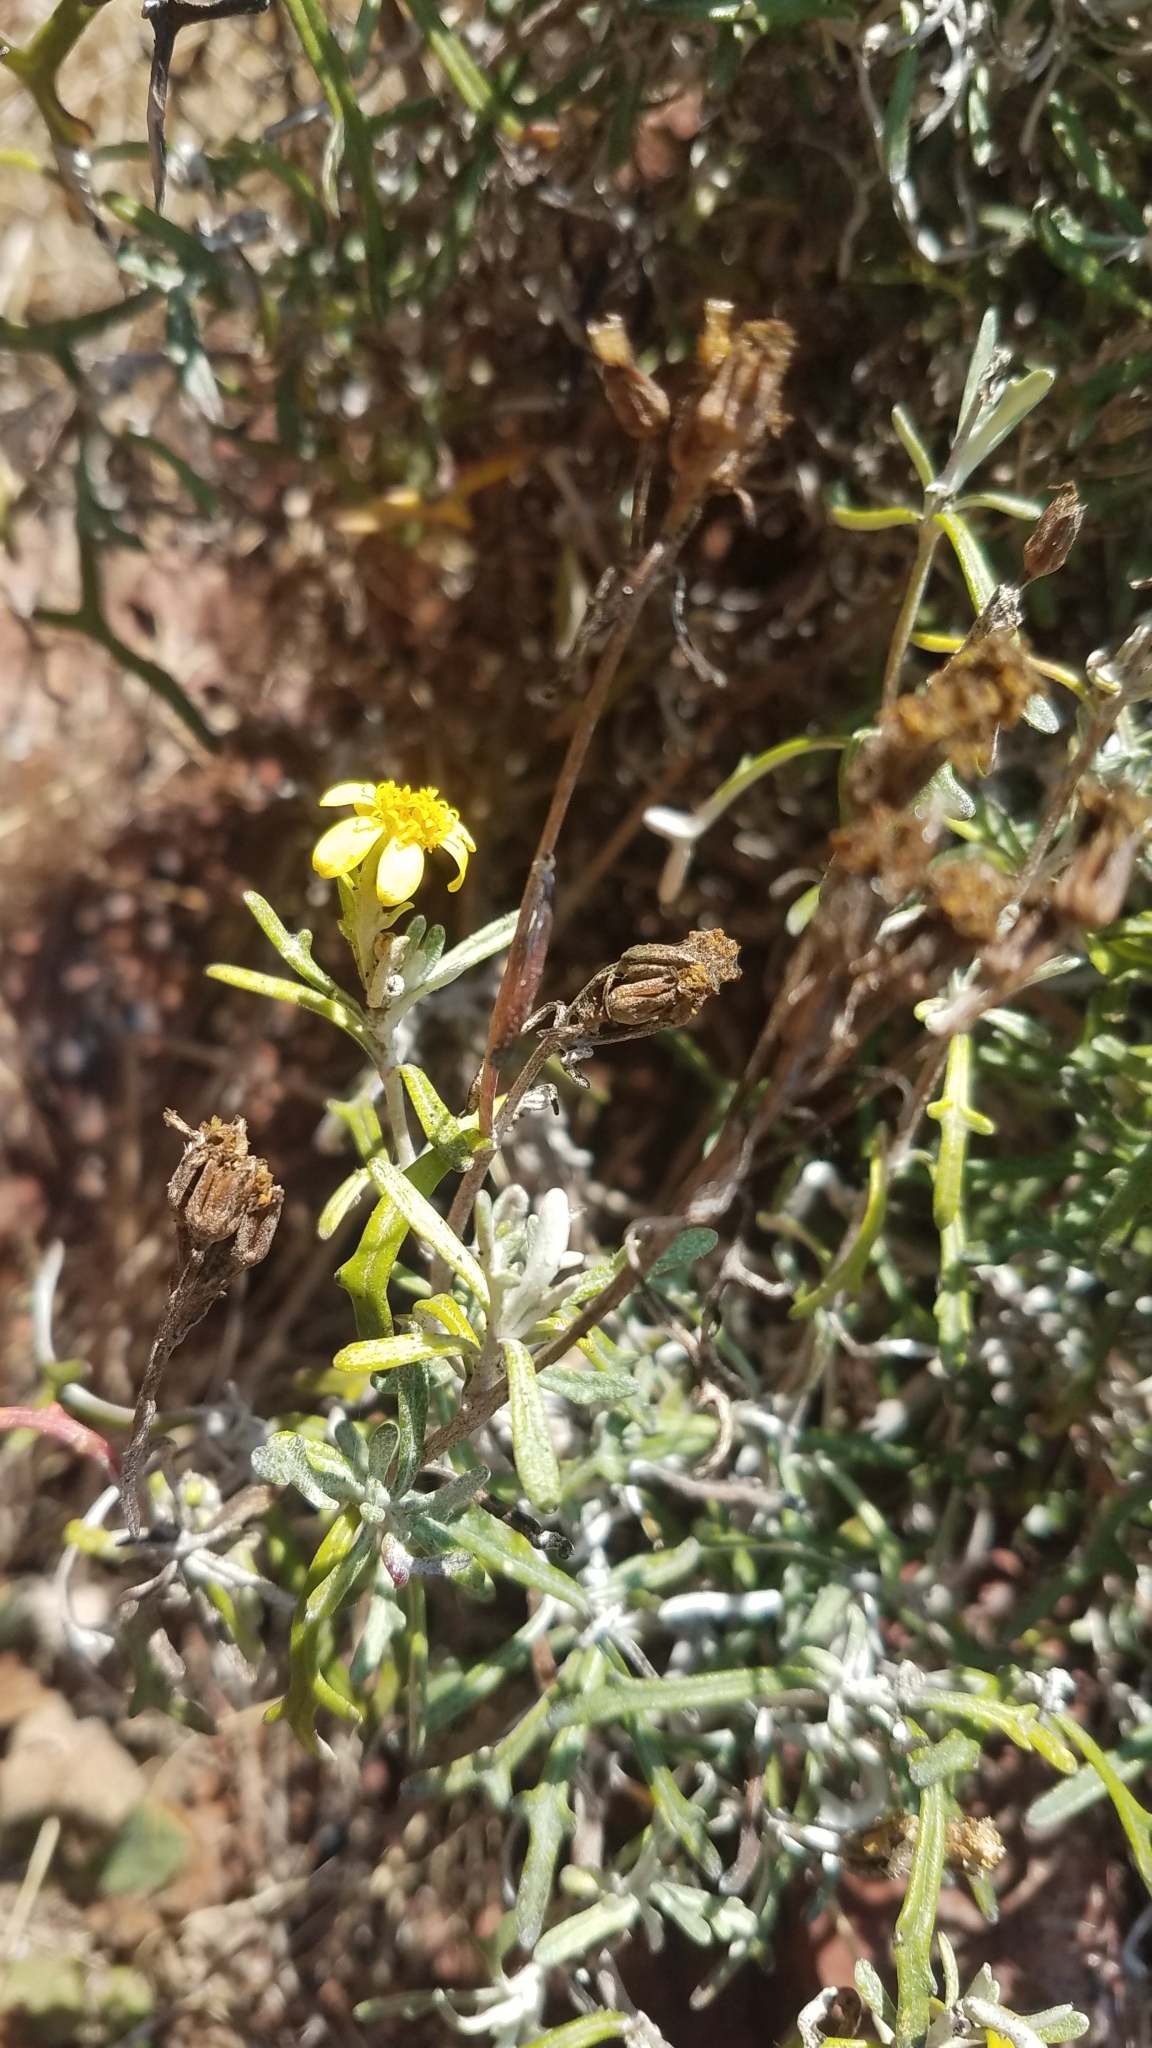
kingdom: Plantae
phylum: Tracheophyta
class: Magnoliopsida
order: Asterales
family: Asteraceae
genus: Eriophyllum
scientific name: Eriophyllum staechadifolium
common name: Lizardtail
